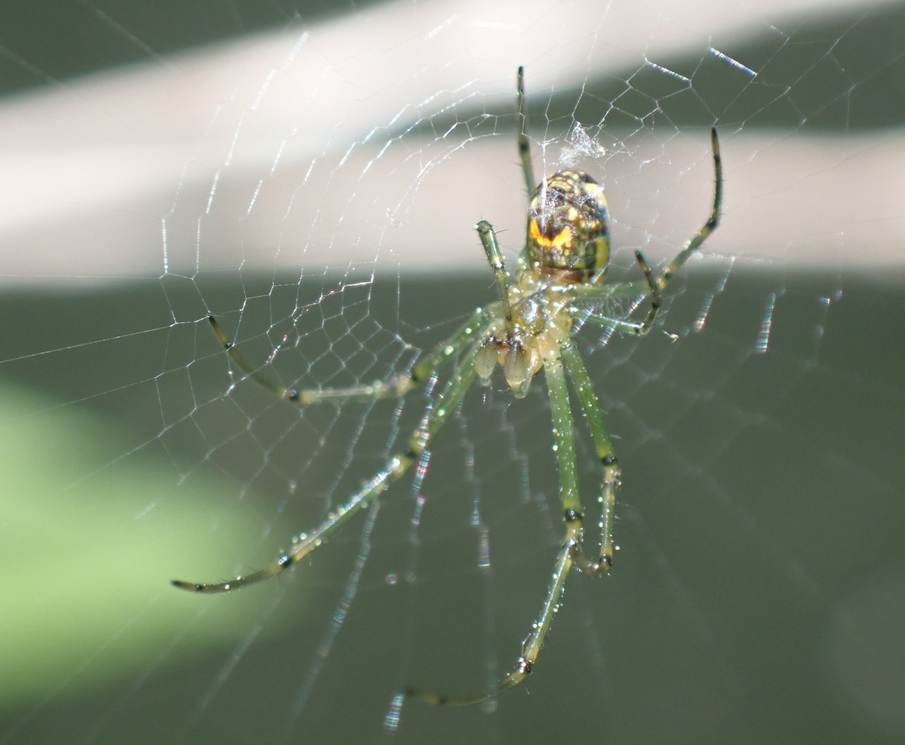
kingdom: Animalia
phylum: Arthropoda
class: Arachnida
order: Araneae
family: Tetragnathidae
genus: Leucauge
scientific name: Leucauge venusta
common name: Longjawed orb weavers
